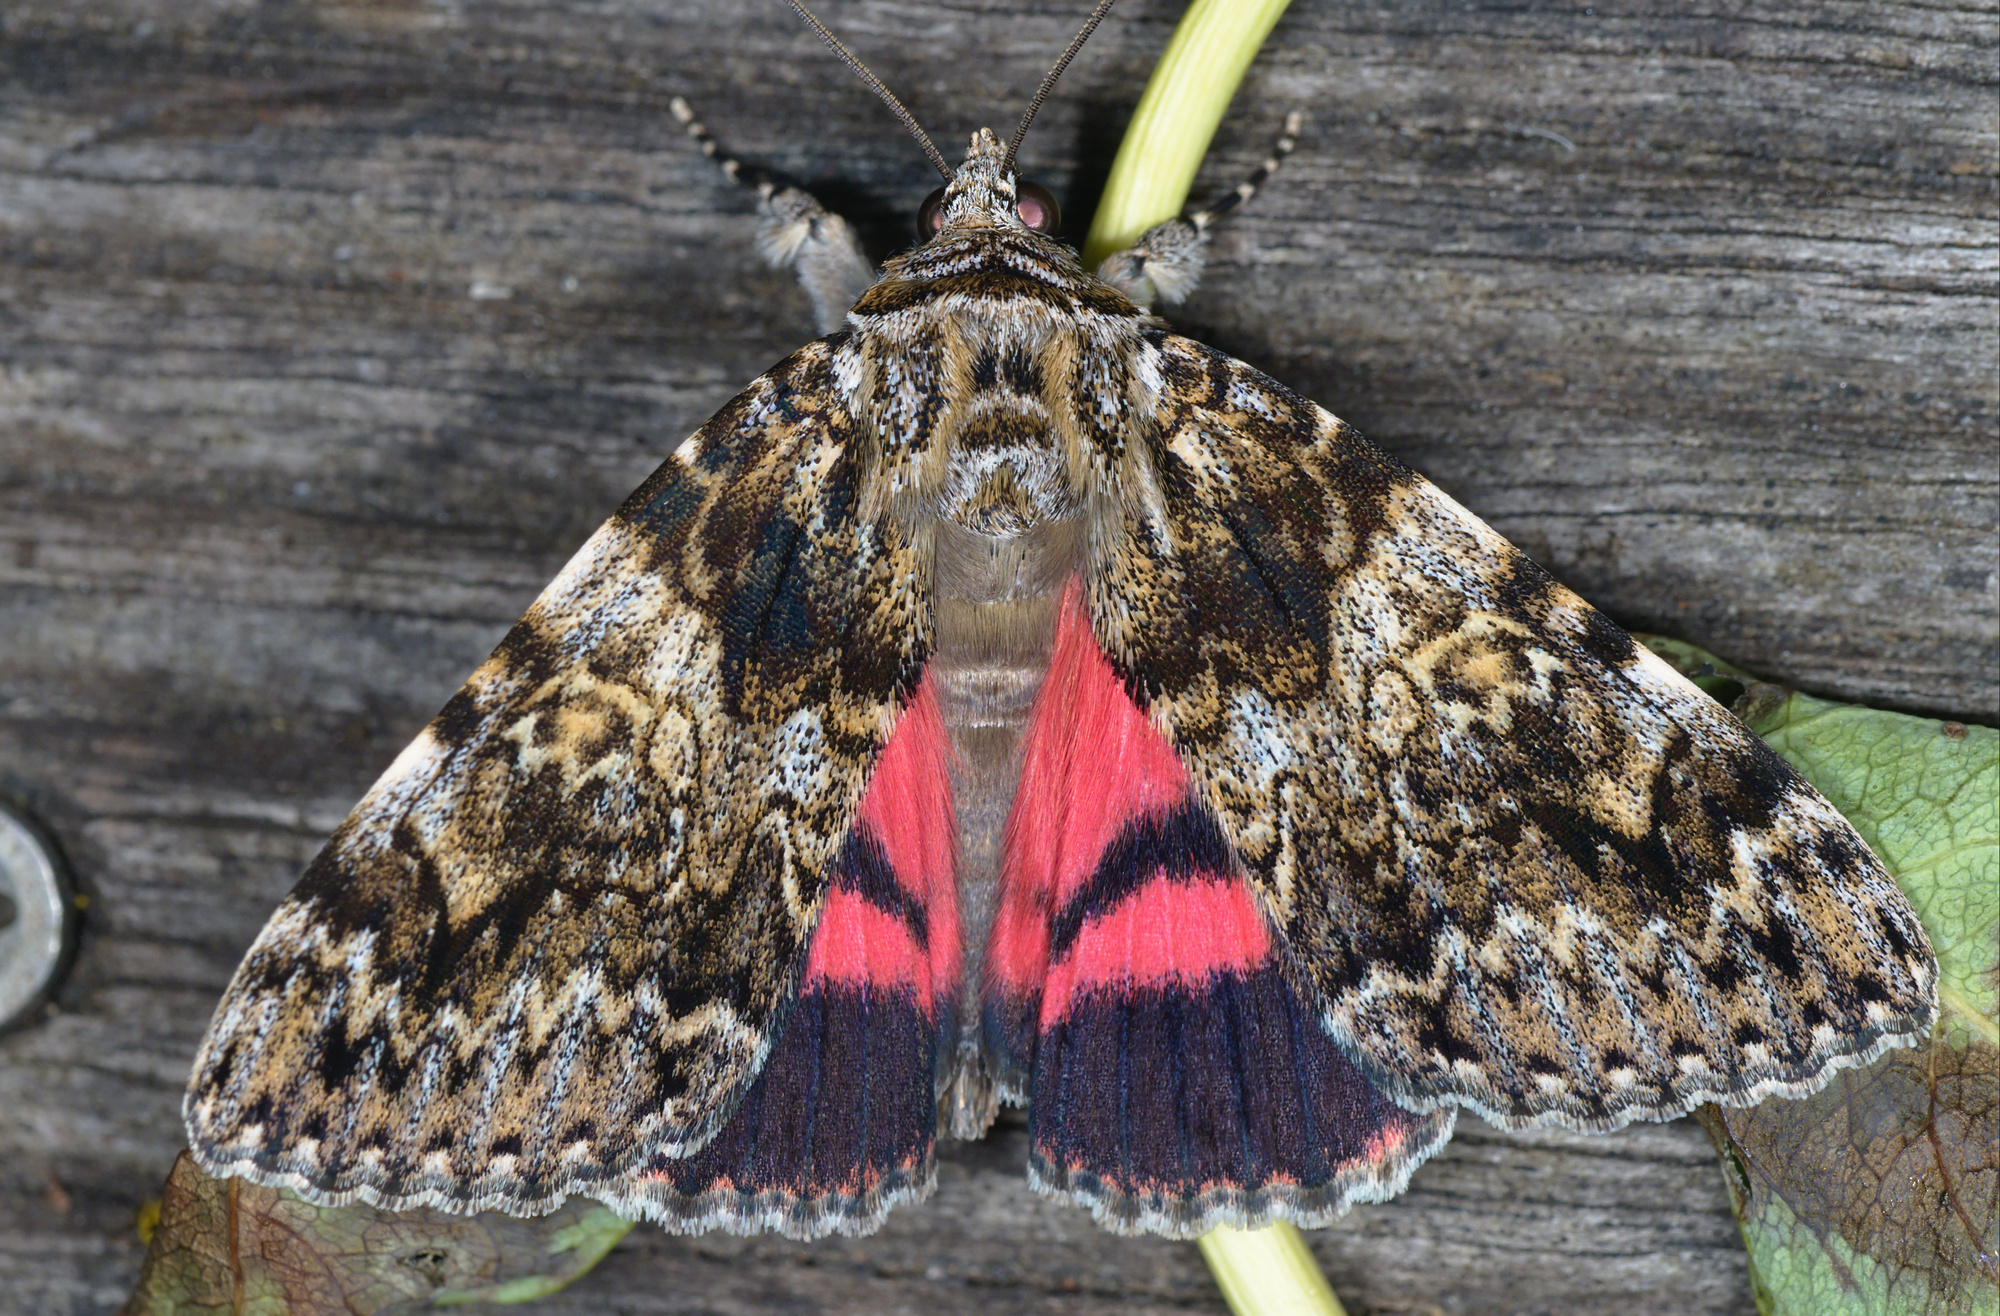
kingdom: Animalia
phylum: Arthropoda
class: Insecta
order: Lepidoptera
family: Erebidae
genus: Catocala
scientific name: Catocala promissa
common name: Light crimson underwing
